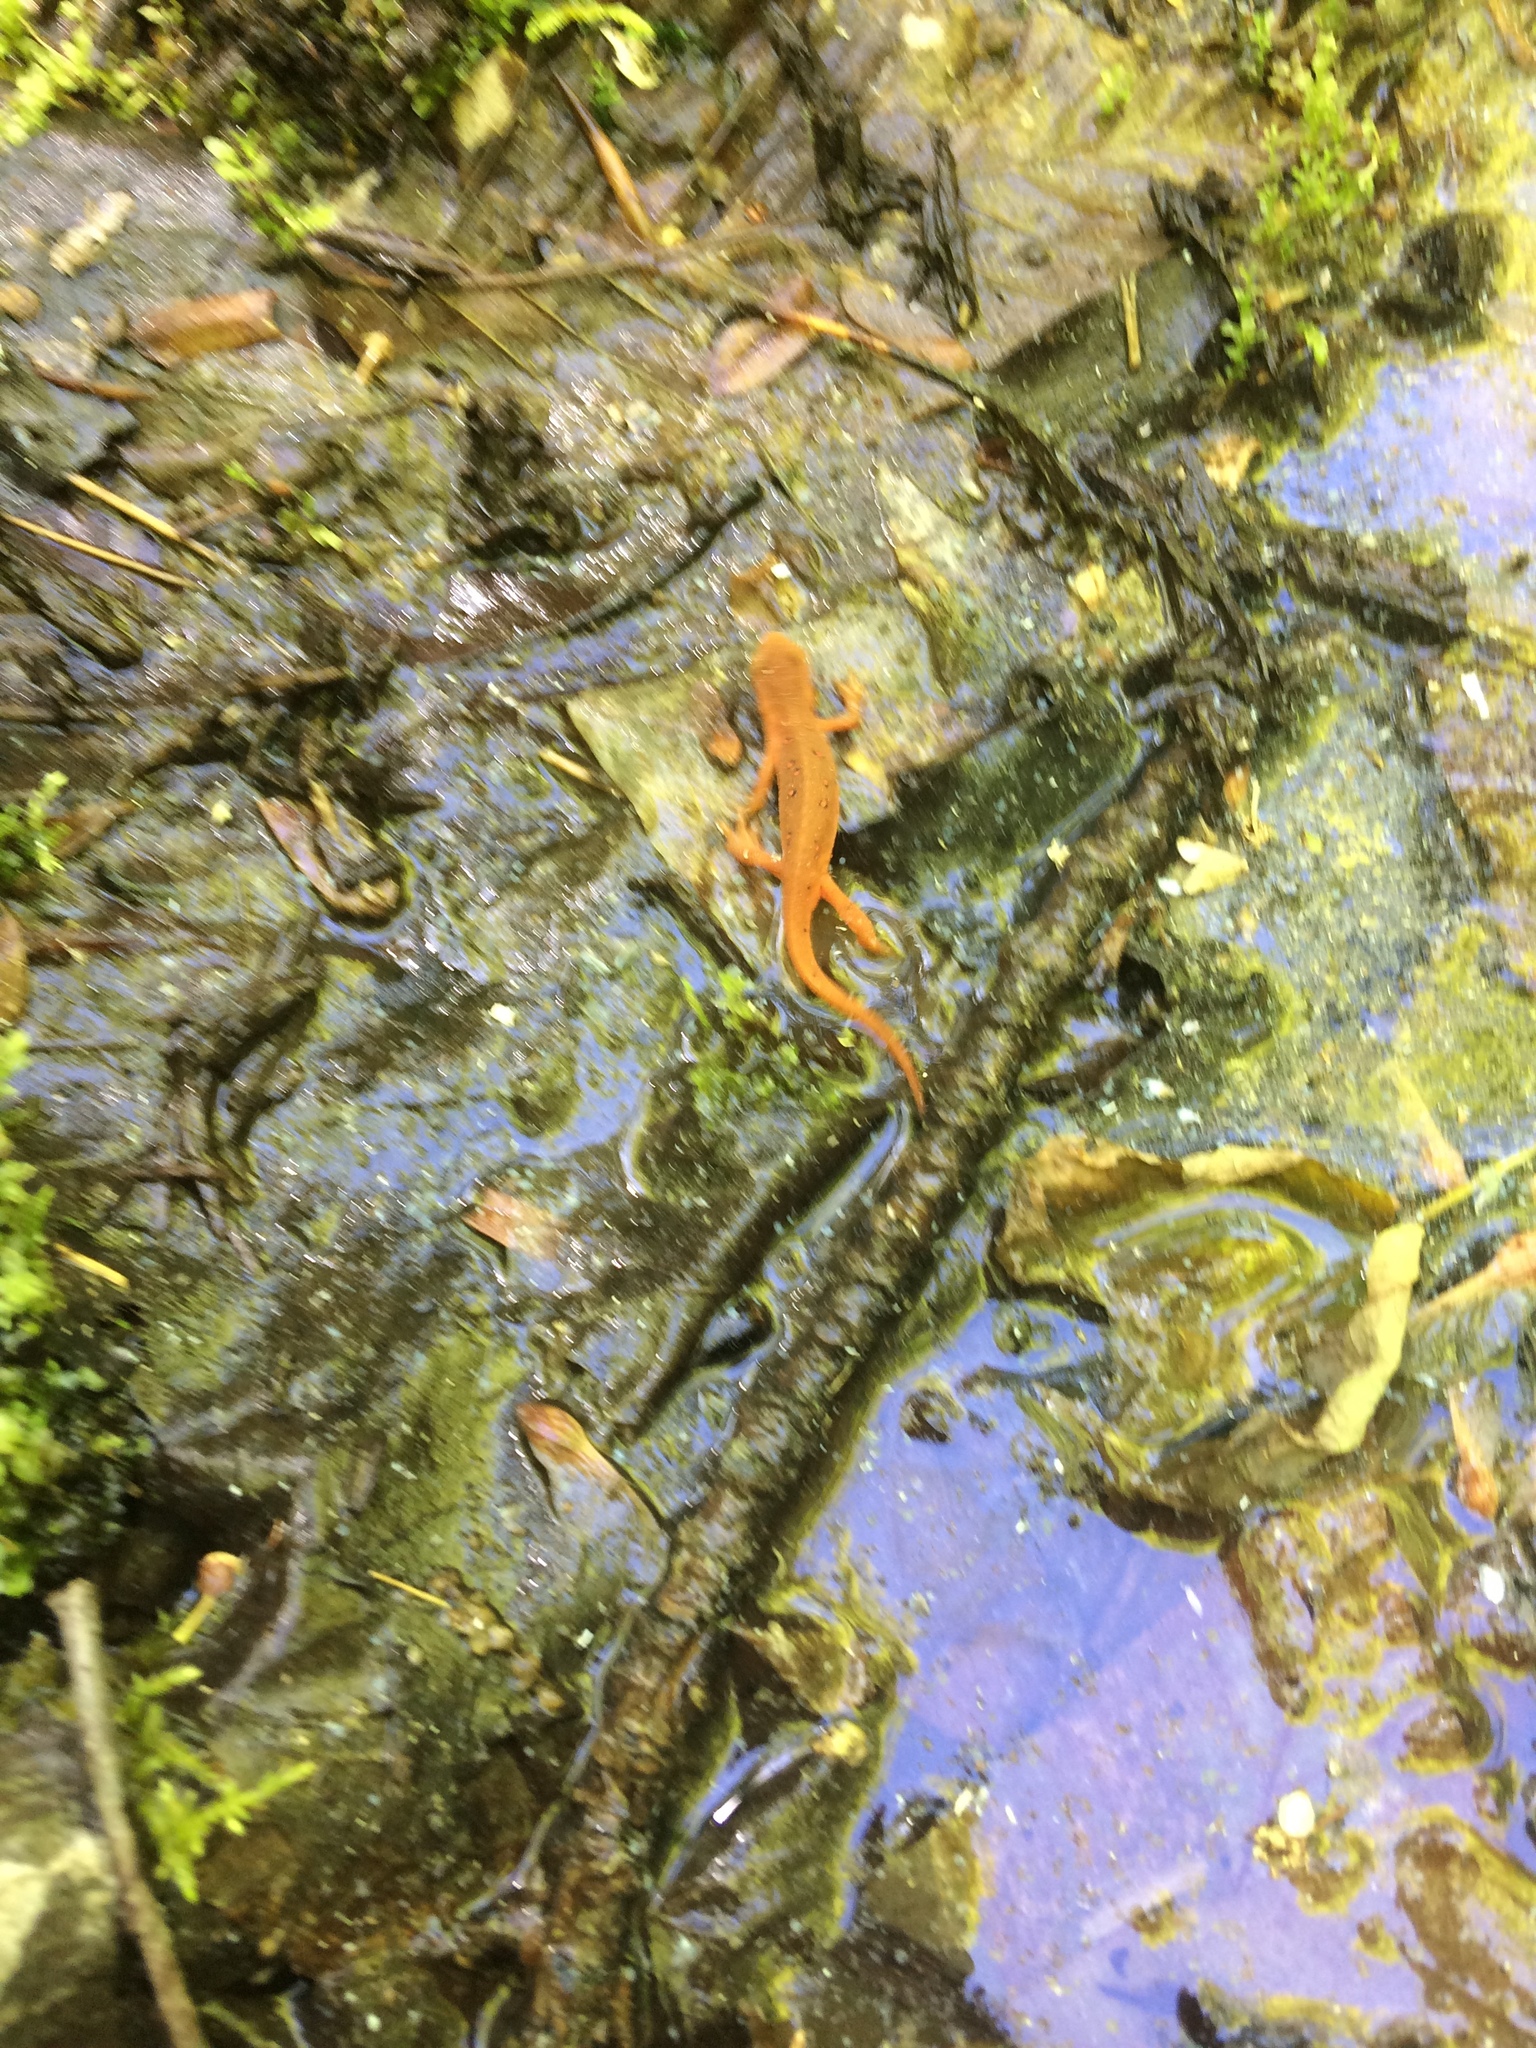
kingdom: Animalia
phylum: Chordata
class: Amphibia
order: Caudata
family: Salamandridae
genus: Notophthalmus
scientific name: Notophthalmus viridescens
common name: Eastern newt
